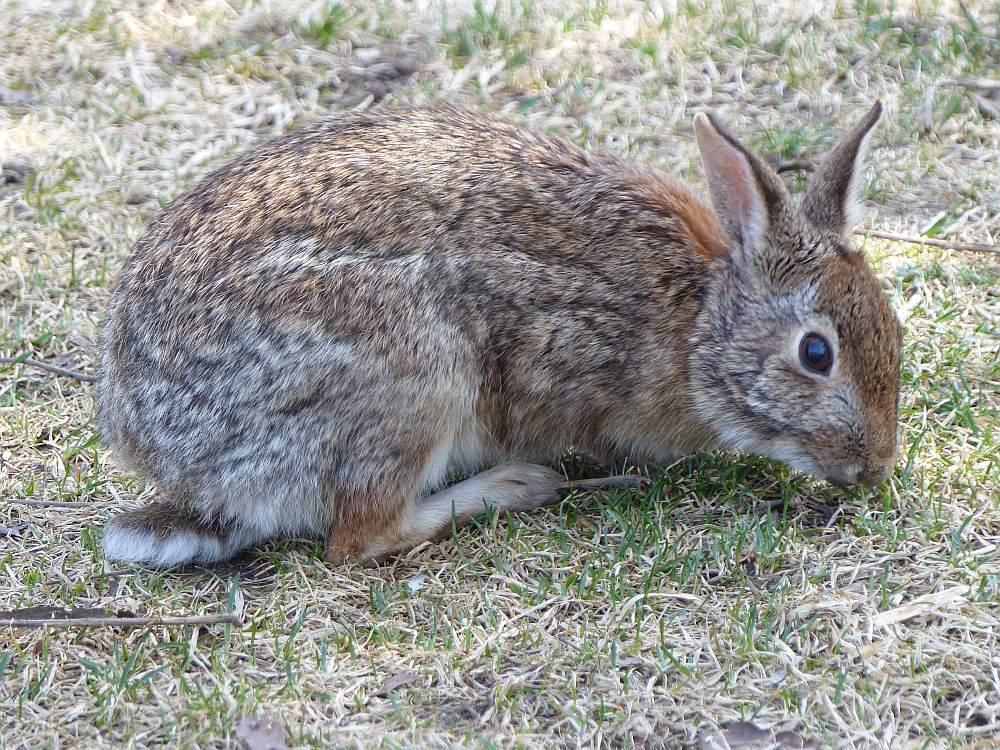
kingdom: Animalia
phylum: Chordata
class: Mammalia
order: Lagomorpha
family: Leporidae
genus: Sylvilagus
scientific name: Sylvilagus floridanus
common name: Eastern cottontail
